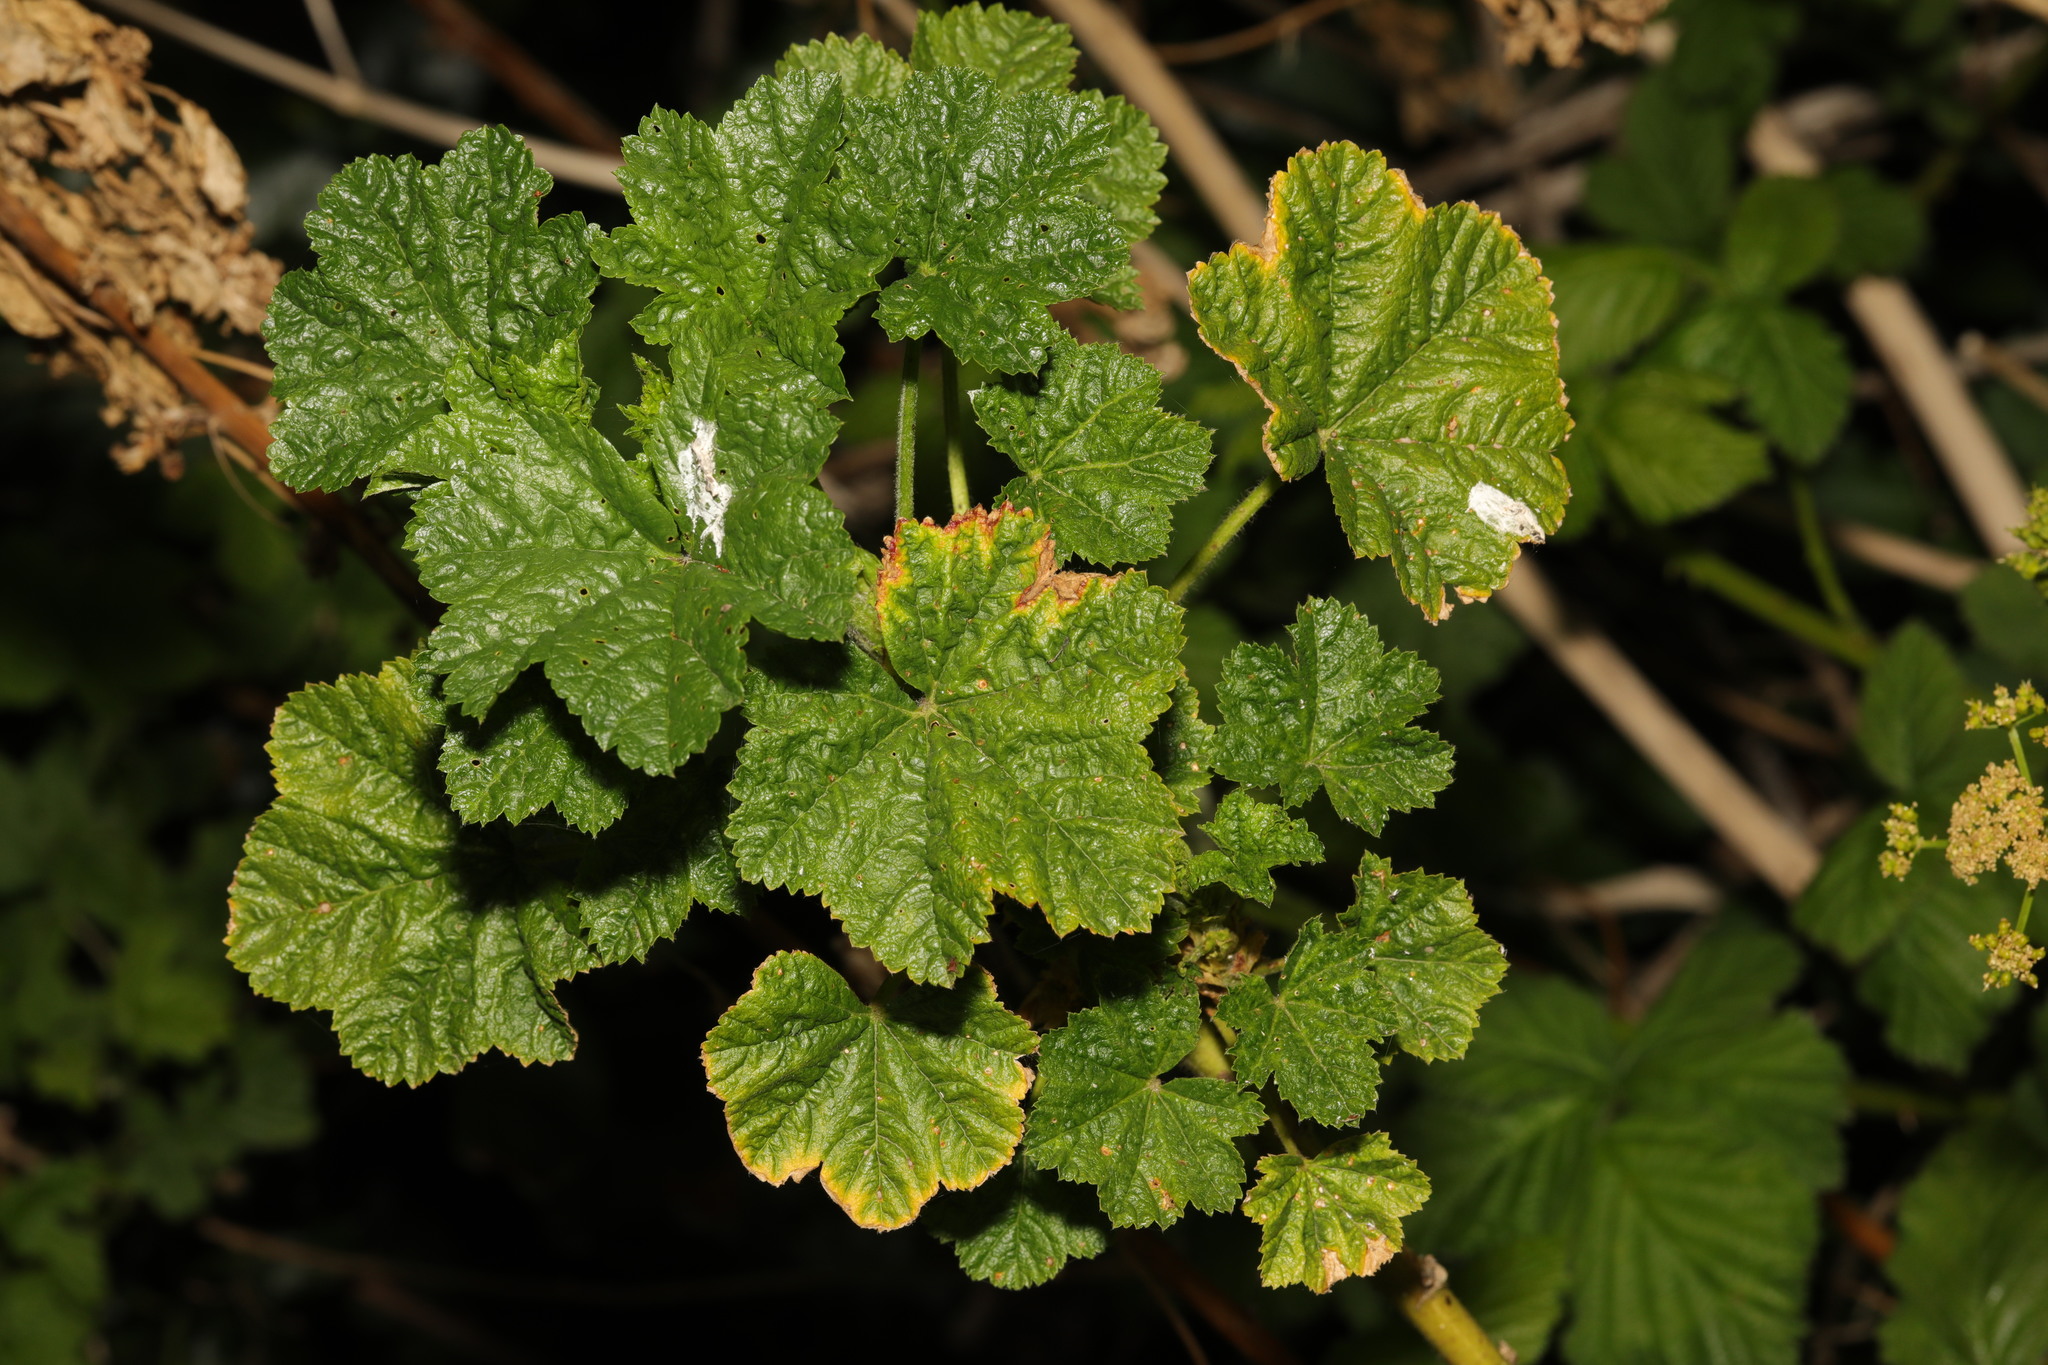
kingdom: Plantae
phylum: Tracheophyta
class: Magnoliopsida
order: Malvales
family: Malvaceae
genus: Malva
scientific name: Malva arborea
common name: Tree mallow
